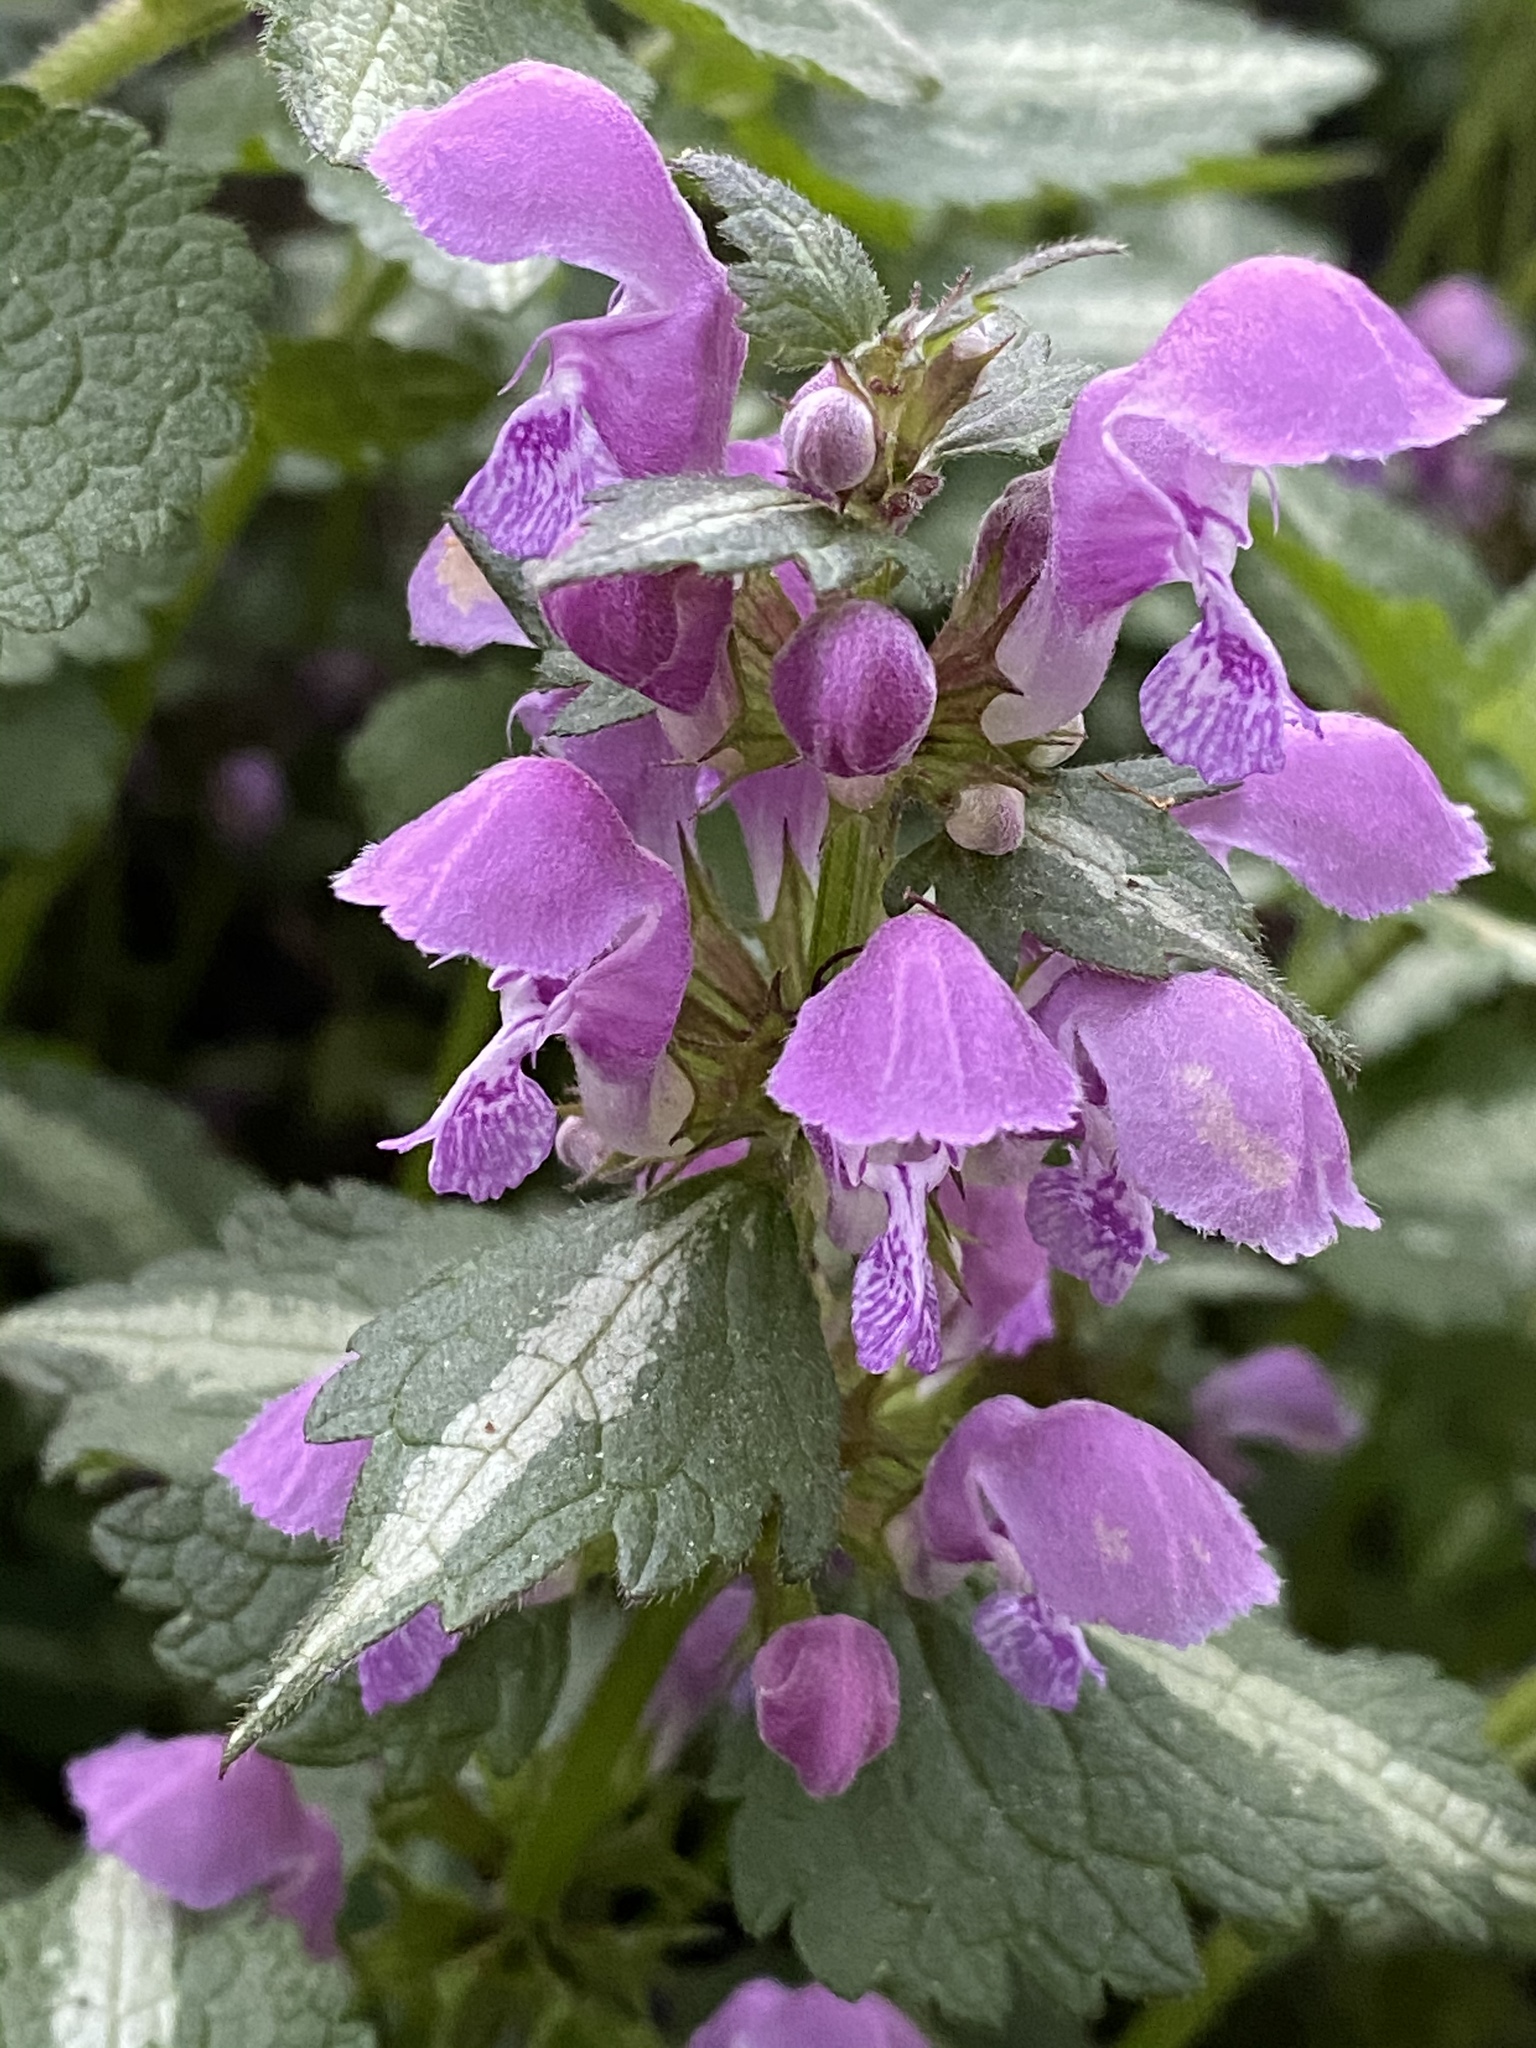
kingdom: Plantae
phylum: Tracheophyta
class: Magnoliopsida
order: Lamiales
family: Lamiaceae
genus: Lamium
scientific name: Lamium maculatum
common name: Spotted dead-nettle
